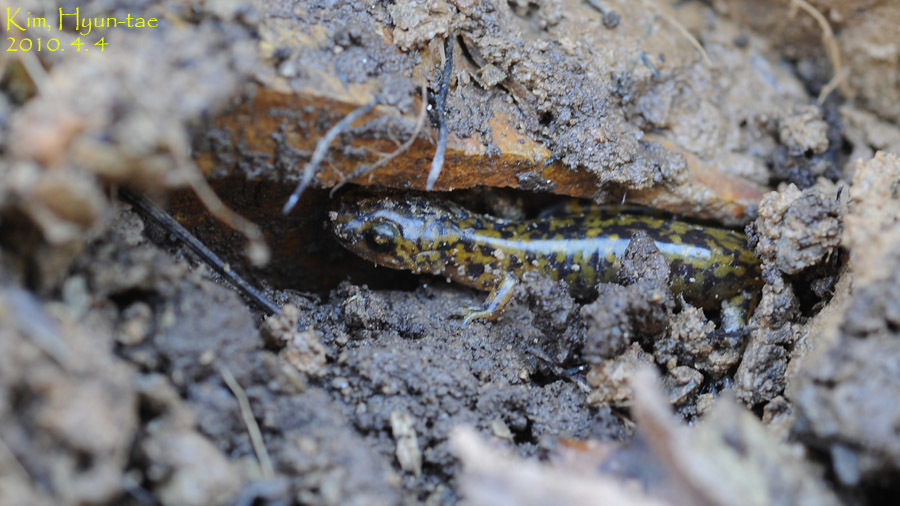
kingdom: Animalia
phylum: Chordata
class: Amphibia
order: Caudata
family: Hynobiidae
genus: Onychodactylus
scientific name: Onychodactylus koreanus
